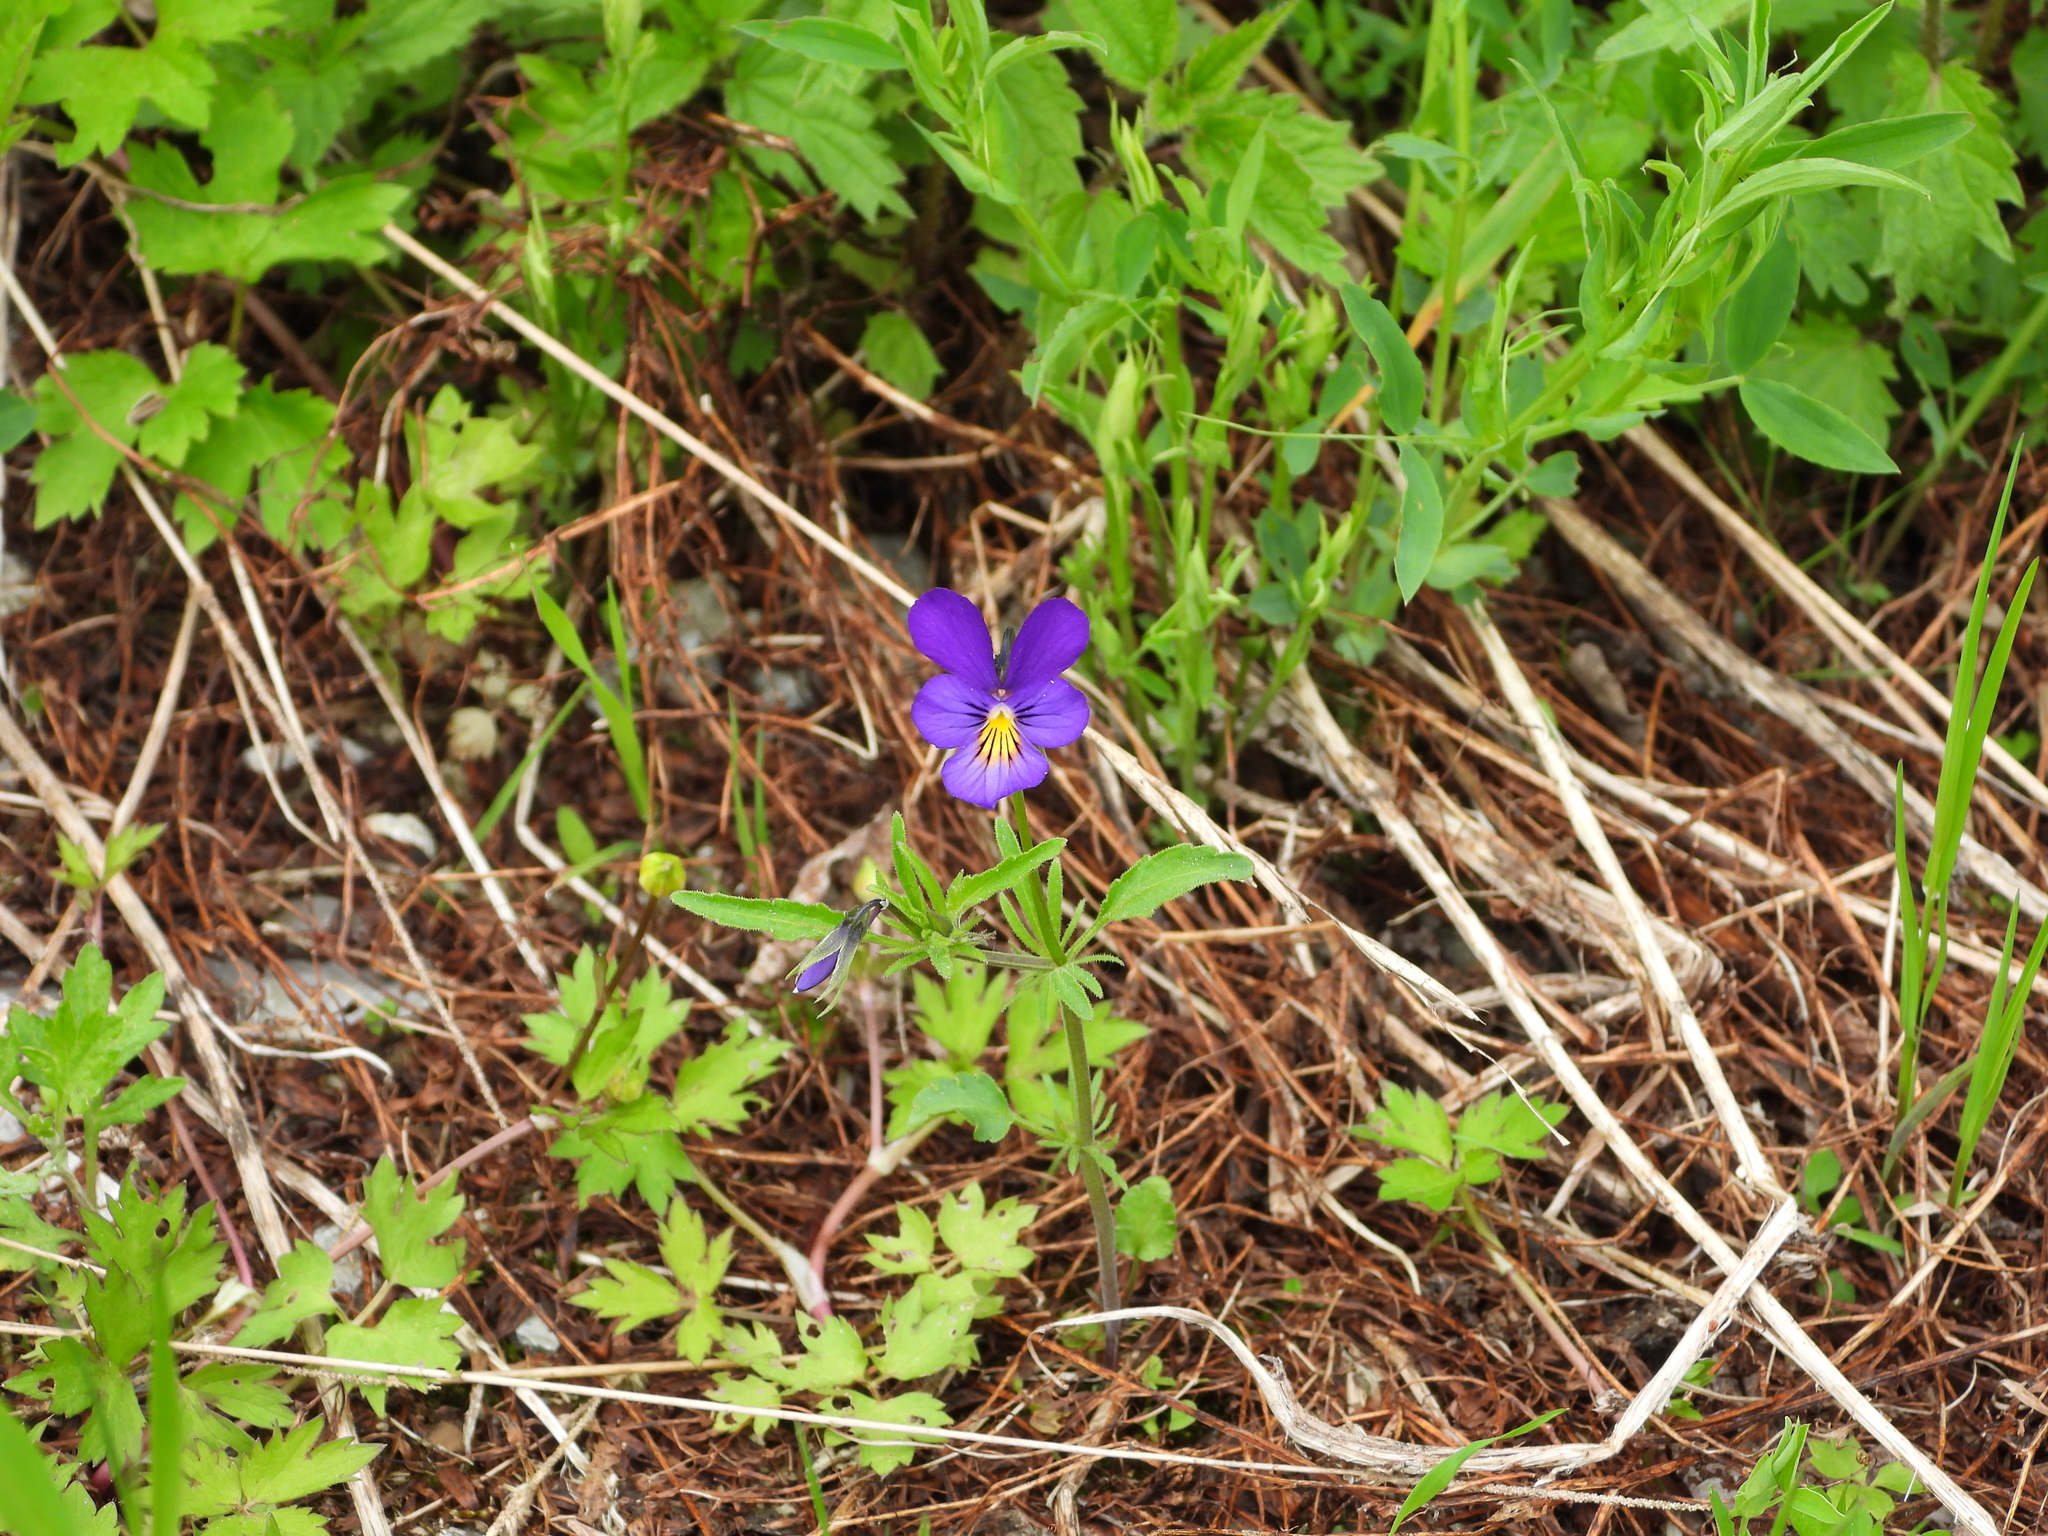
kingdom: Plantae
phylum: Tracheophyta
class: Magnoliopsida
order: Malpighiales
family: Violaceae
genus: Viola
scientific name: Viola tricolor
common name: Pansy
